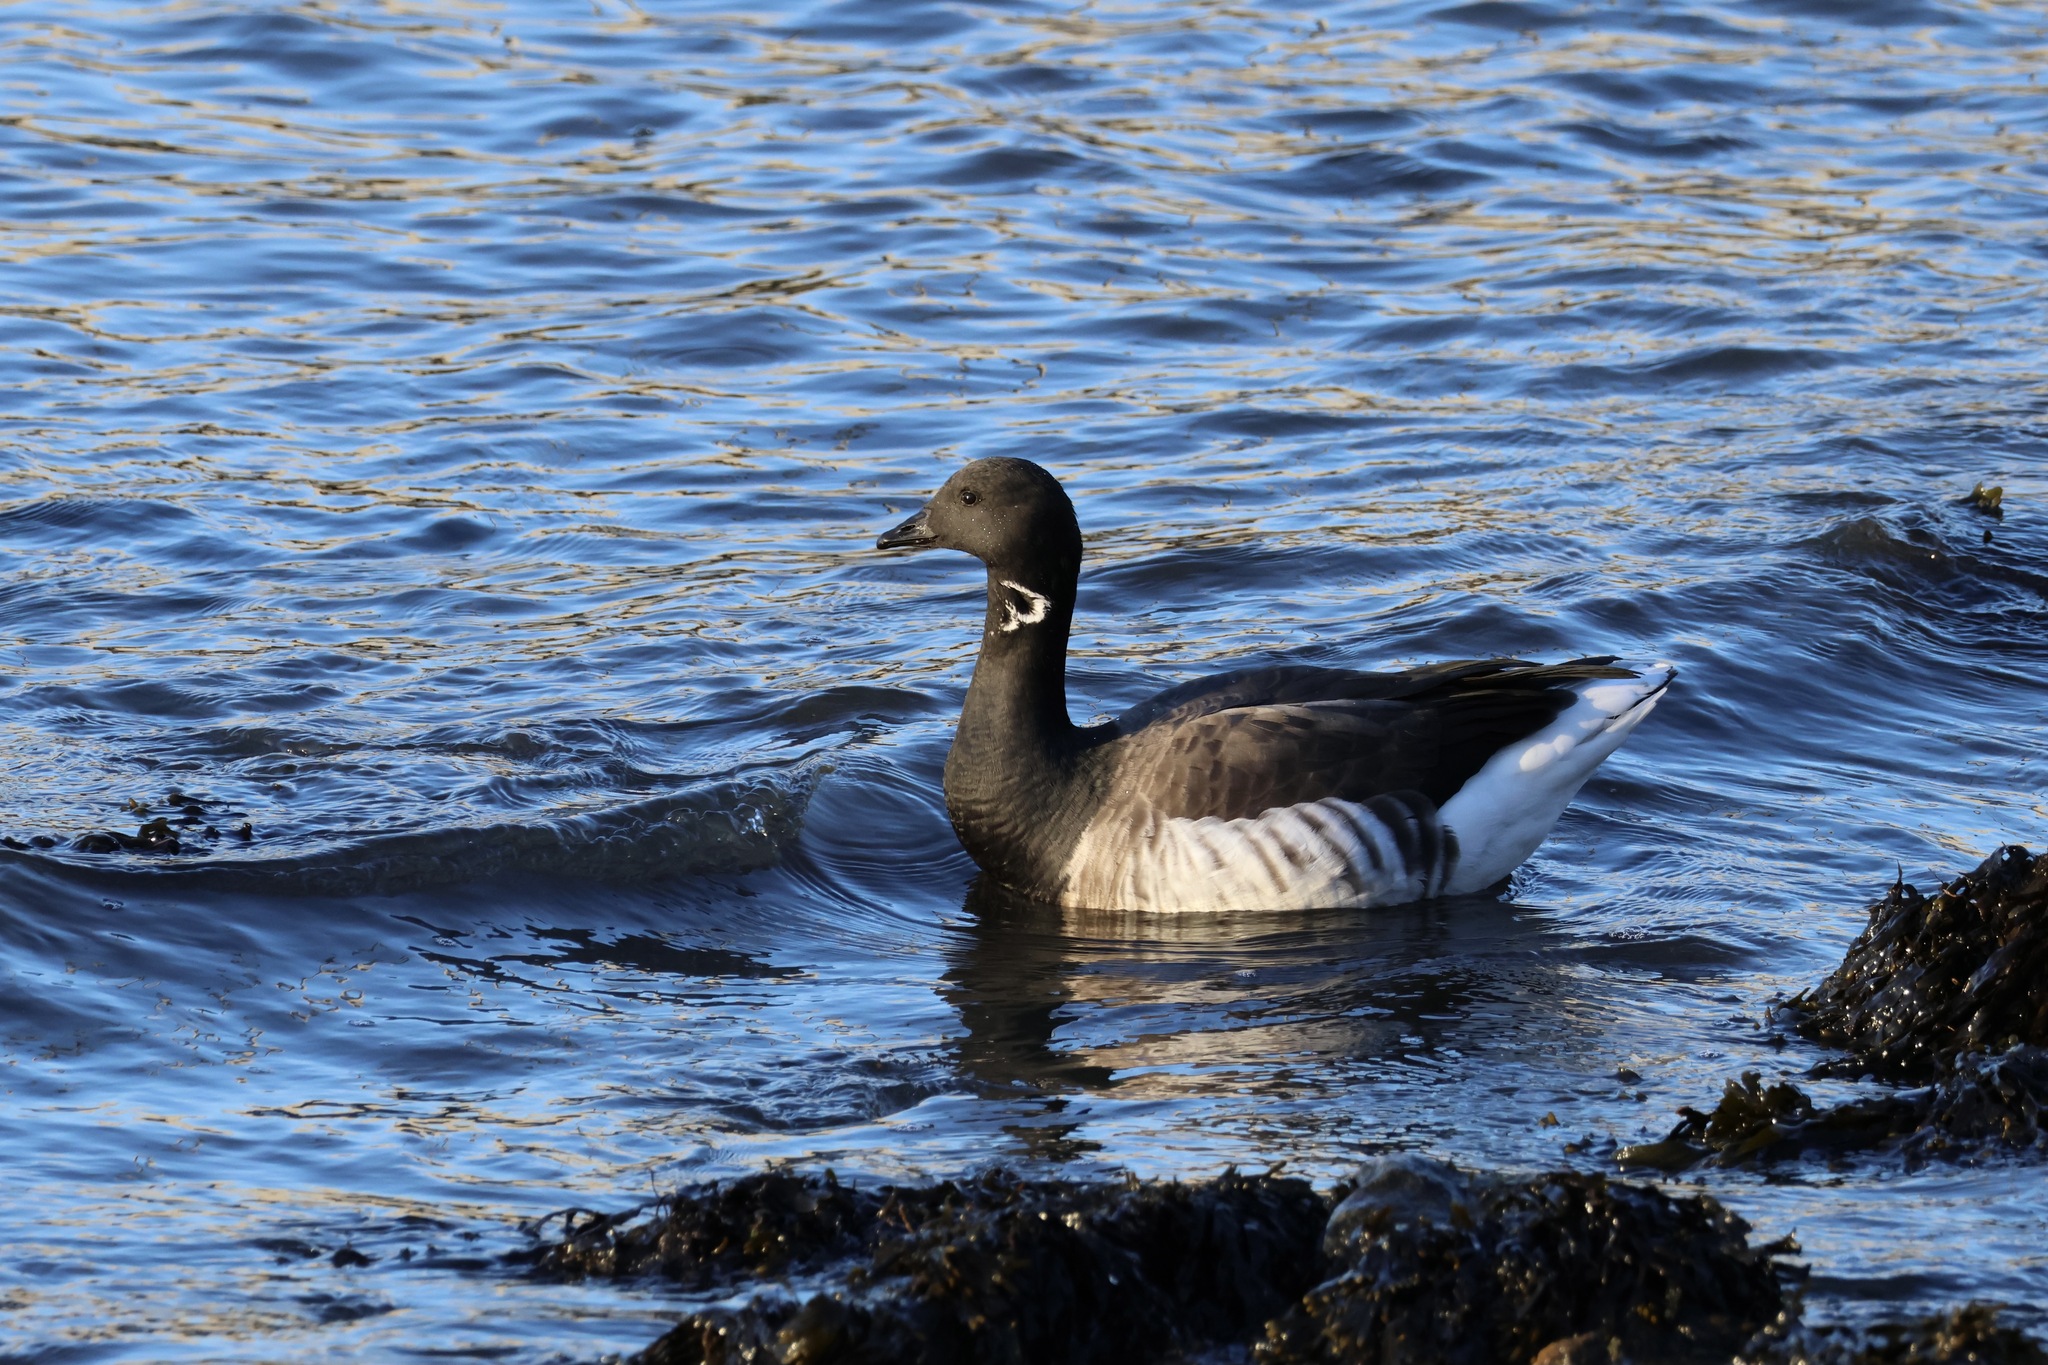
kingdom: Animalia
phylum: Chordata
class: Aves
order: Anseriformes
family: Anatidae
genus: Branta
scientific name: Branta bernicla
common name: Brant goose
